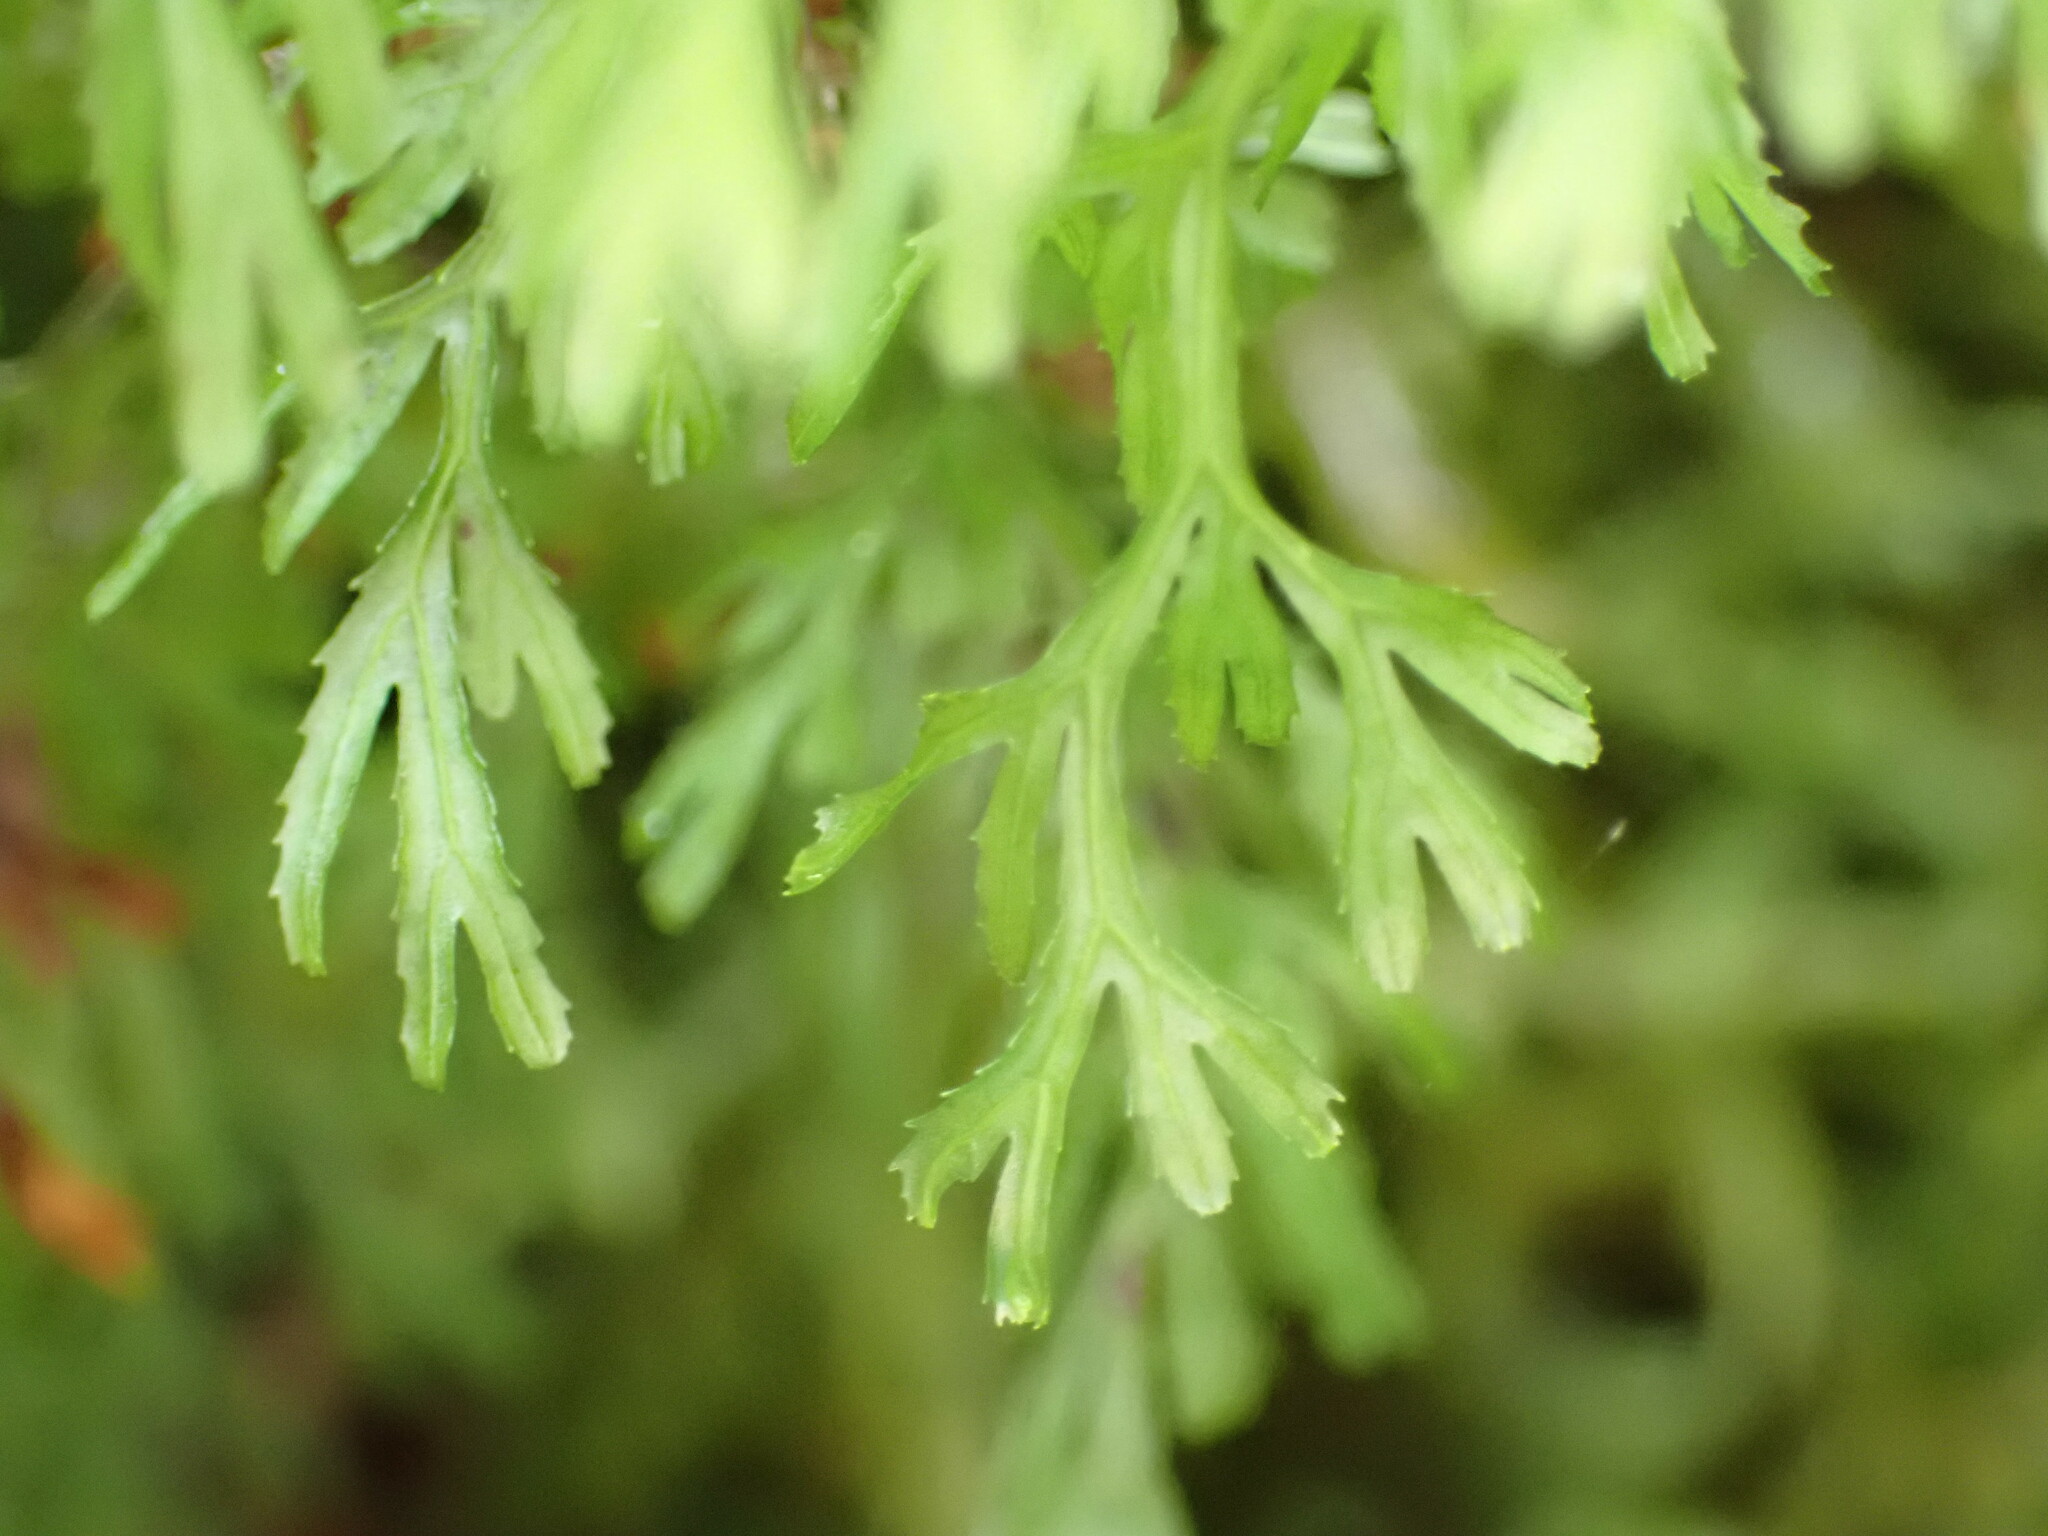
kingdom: Plantae
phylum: Tracheophyta
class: Polypodiopsida
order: Hymenophyllales
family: Hymenophyllaceae
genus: Hymenophyllum
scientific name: Hymenophyllum multifidum
